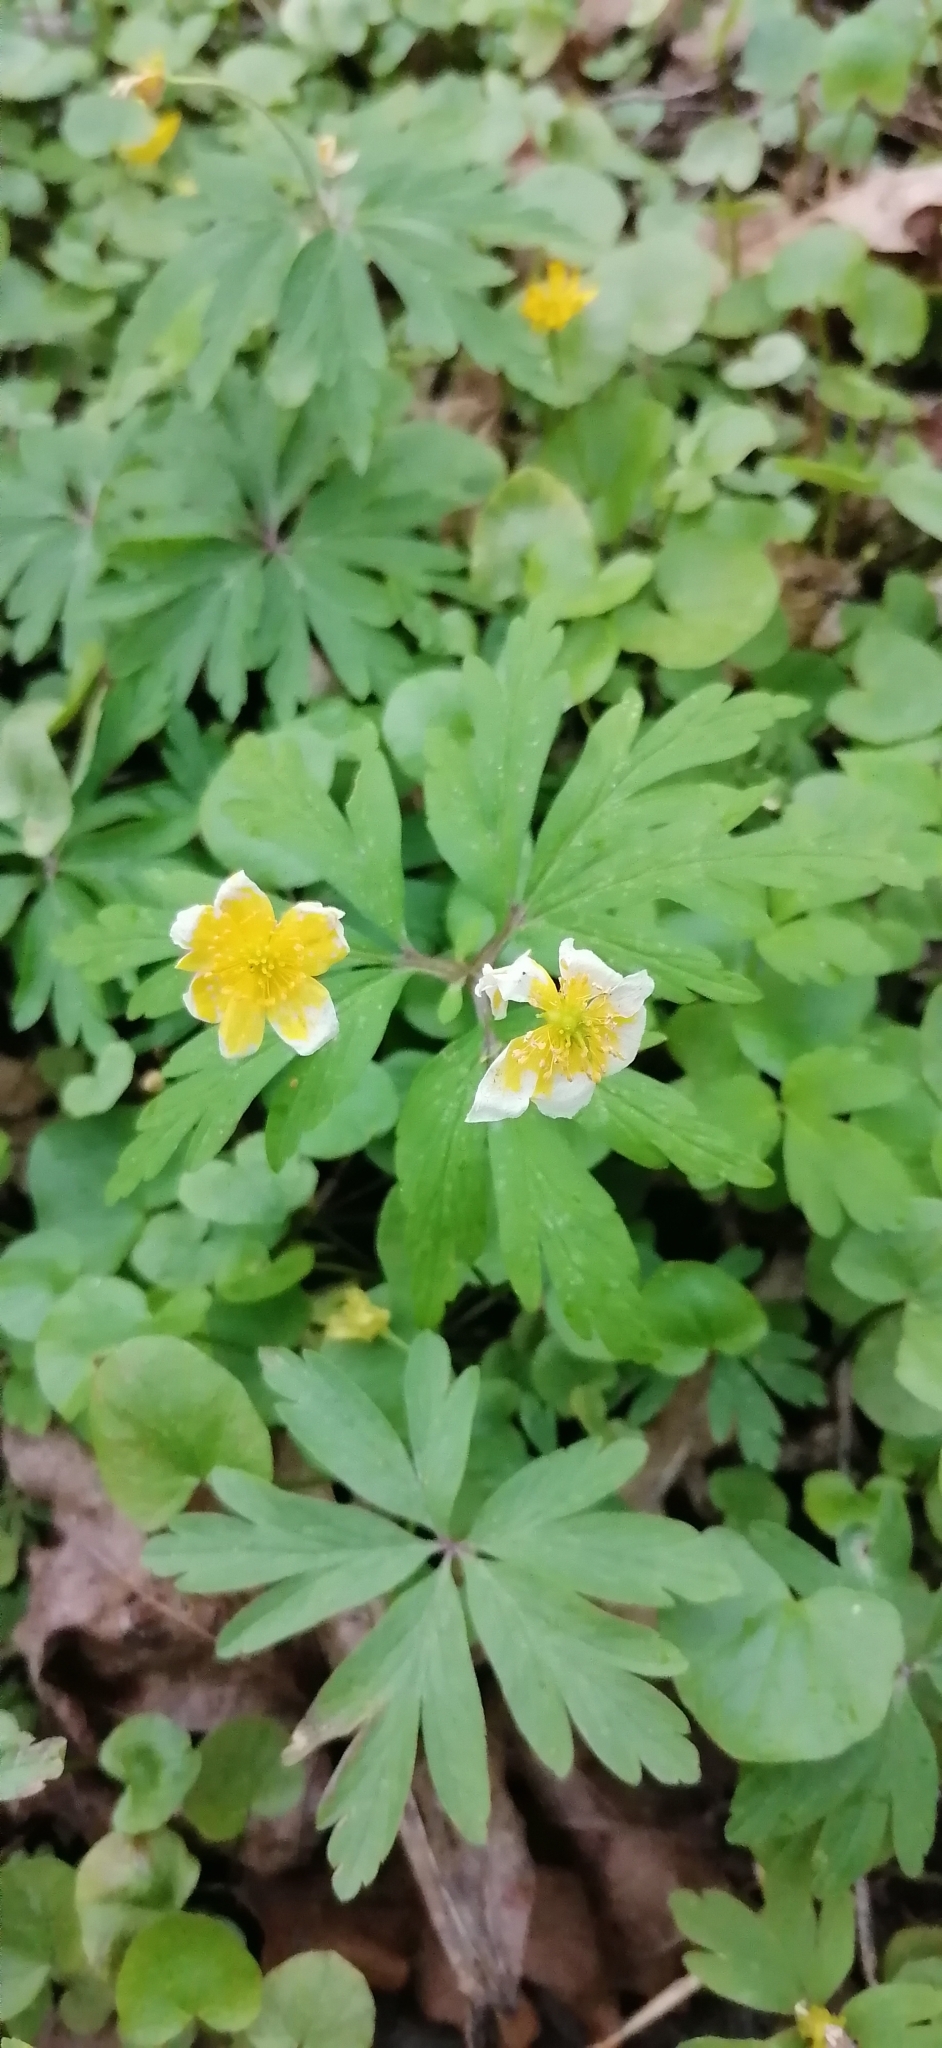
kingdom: Plantae
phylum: Tracheophyta
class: Magnoliopsida
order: Ranunculales
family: Ranunculaceae
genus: Anemone
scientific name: Anemone ranunculoides
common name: Yellow anemone
